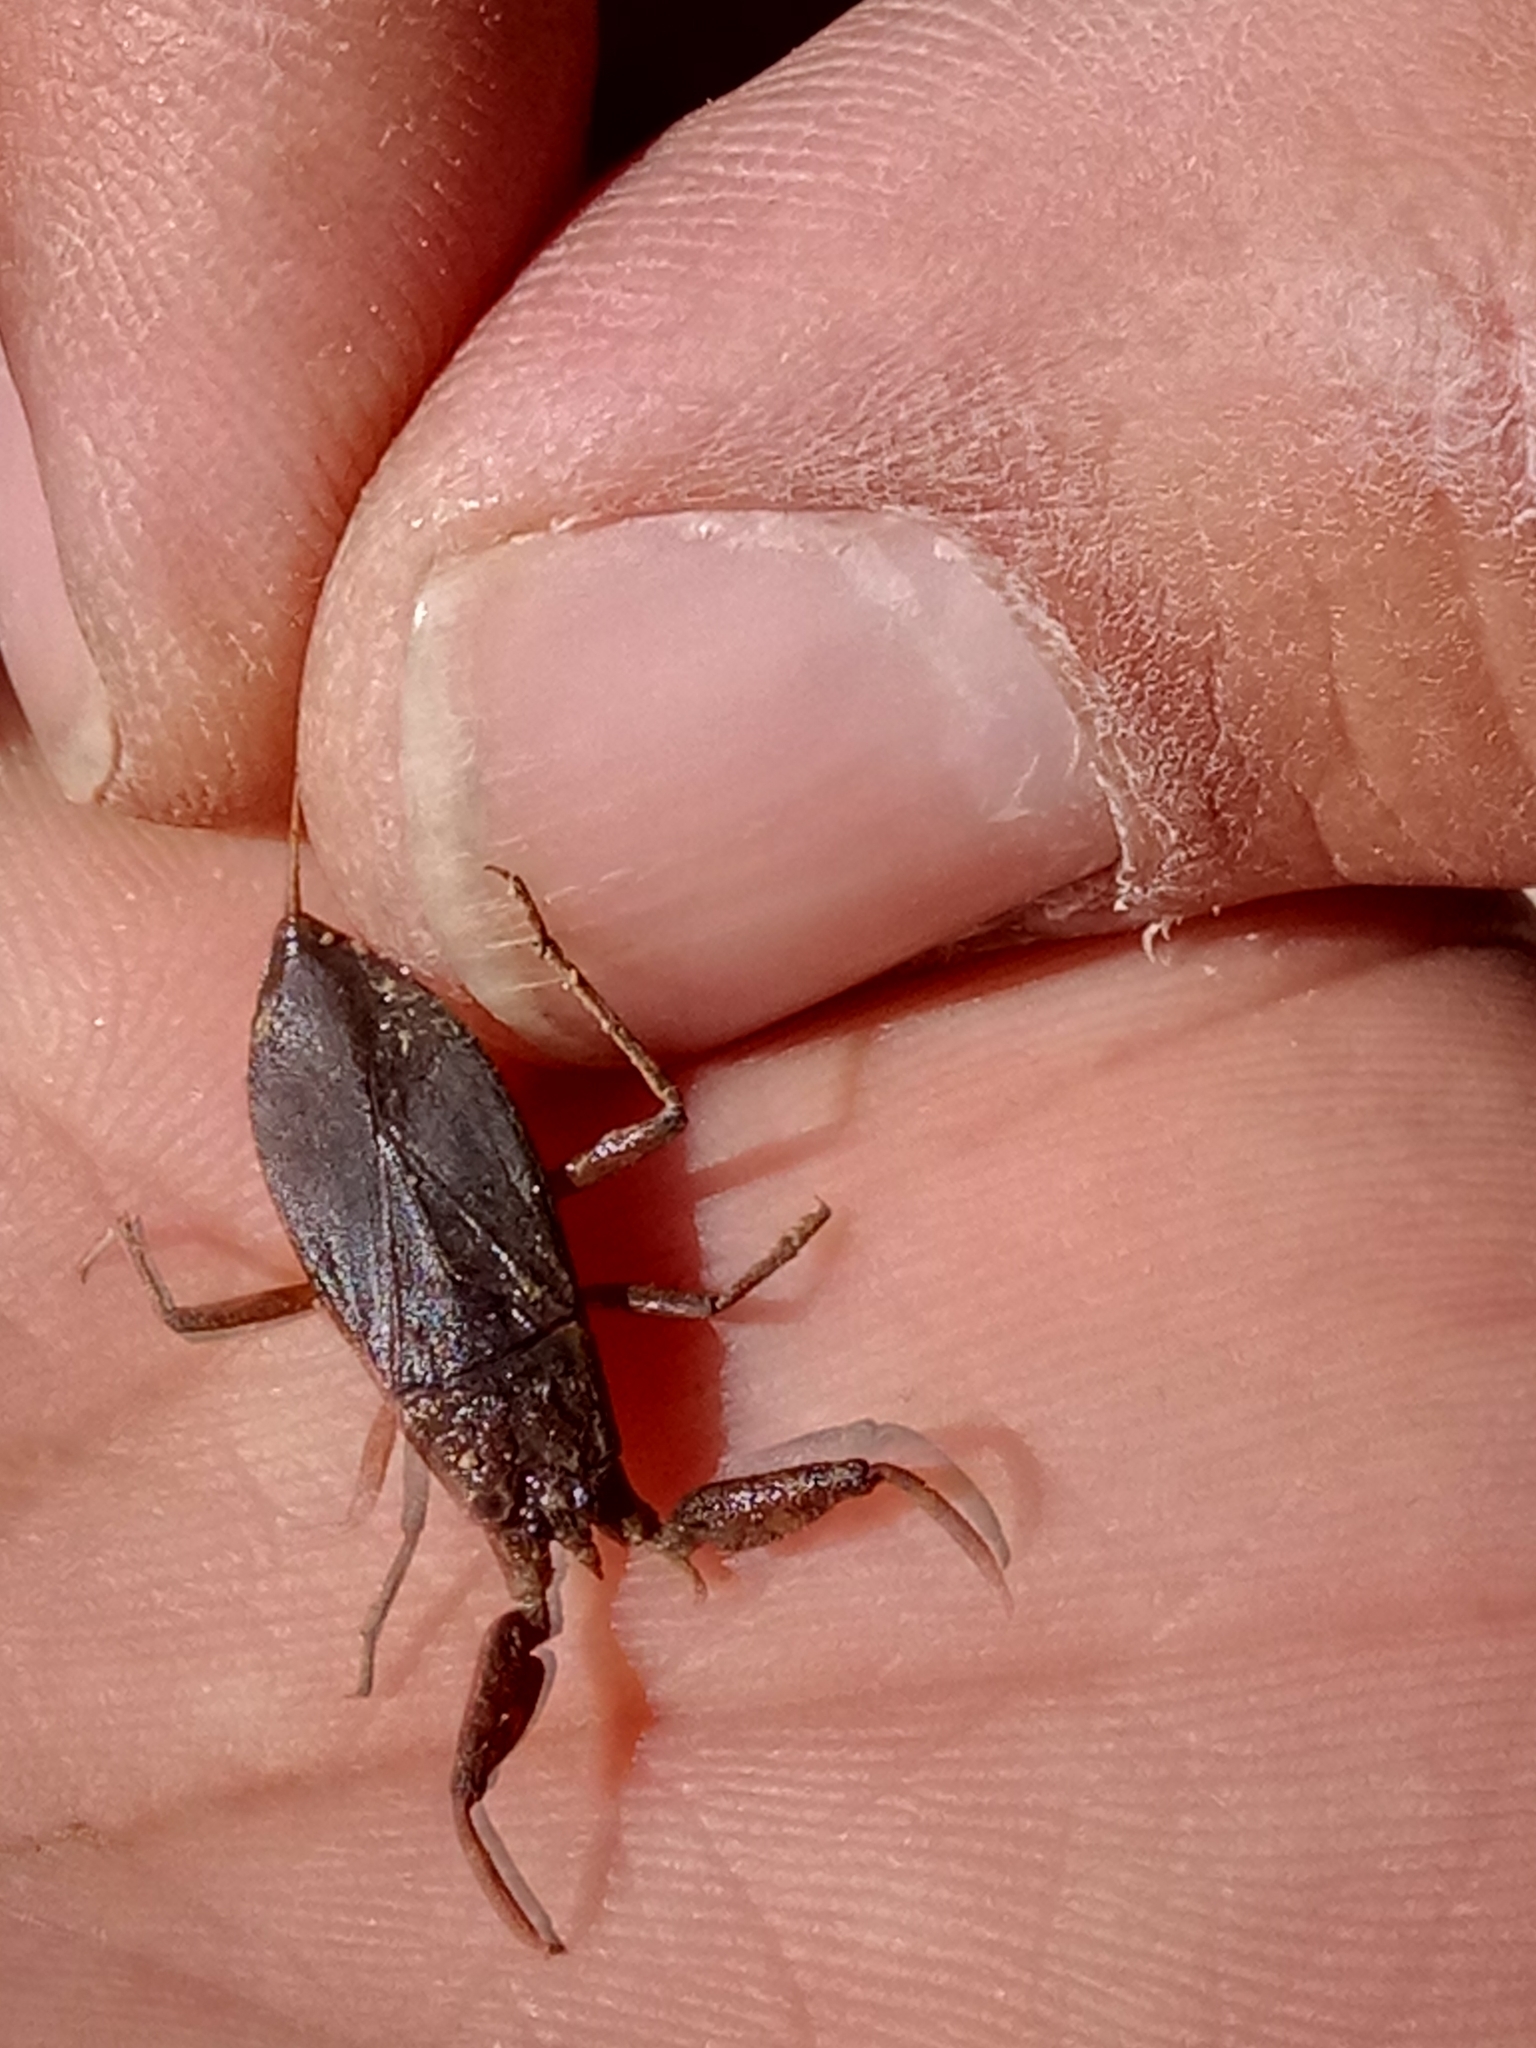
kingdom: Animalia
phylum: Arthropoda
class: Insecta
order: Hemiptera
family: Nepidae
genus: Nepa
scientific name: Nepa cinerea
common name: Water scorpion
